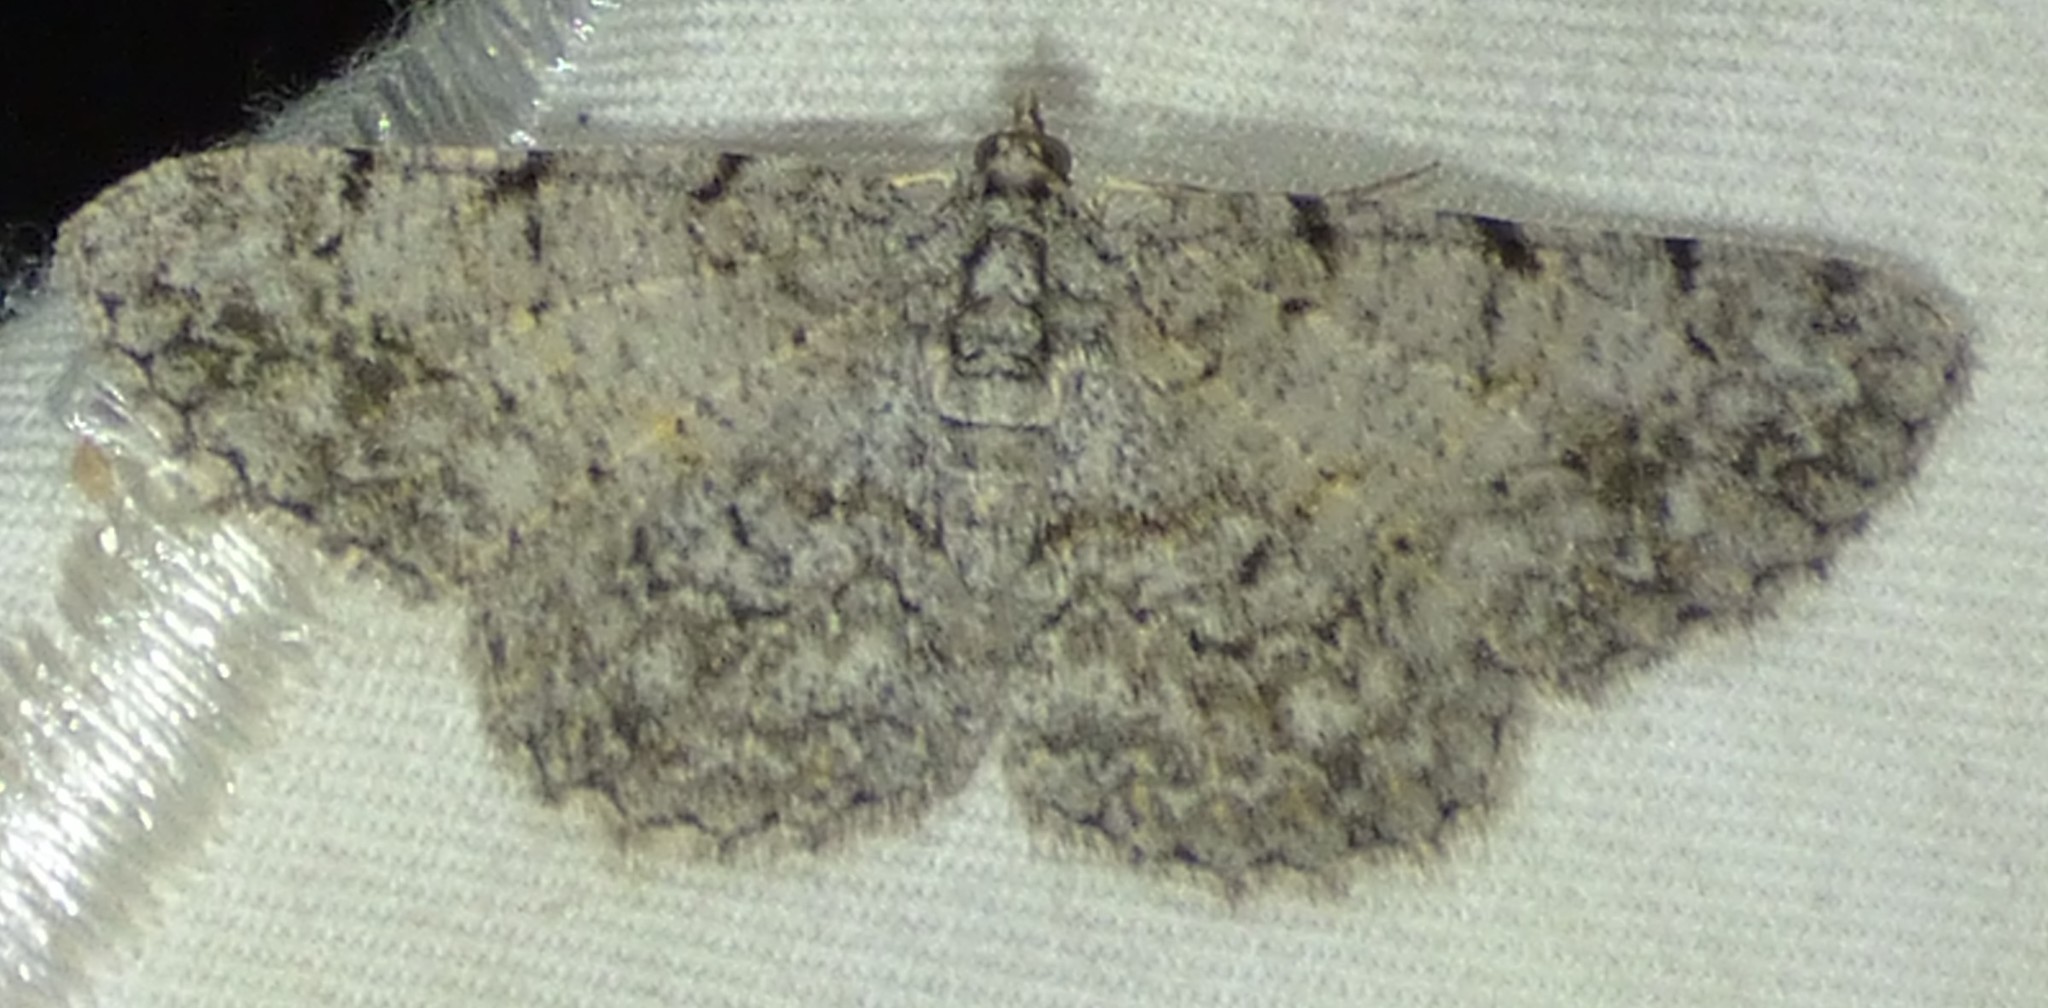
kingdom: Animalia
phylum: Arthropoda
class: Insecta
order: Lepidoptera
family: Geometridae
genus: Protoboarmia
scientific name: Protoboarmia porcelaria
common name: Porcelain gray
